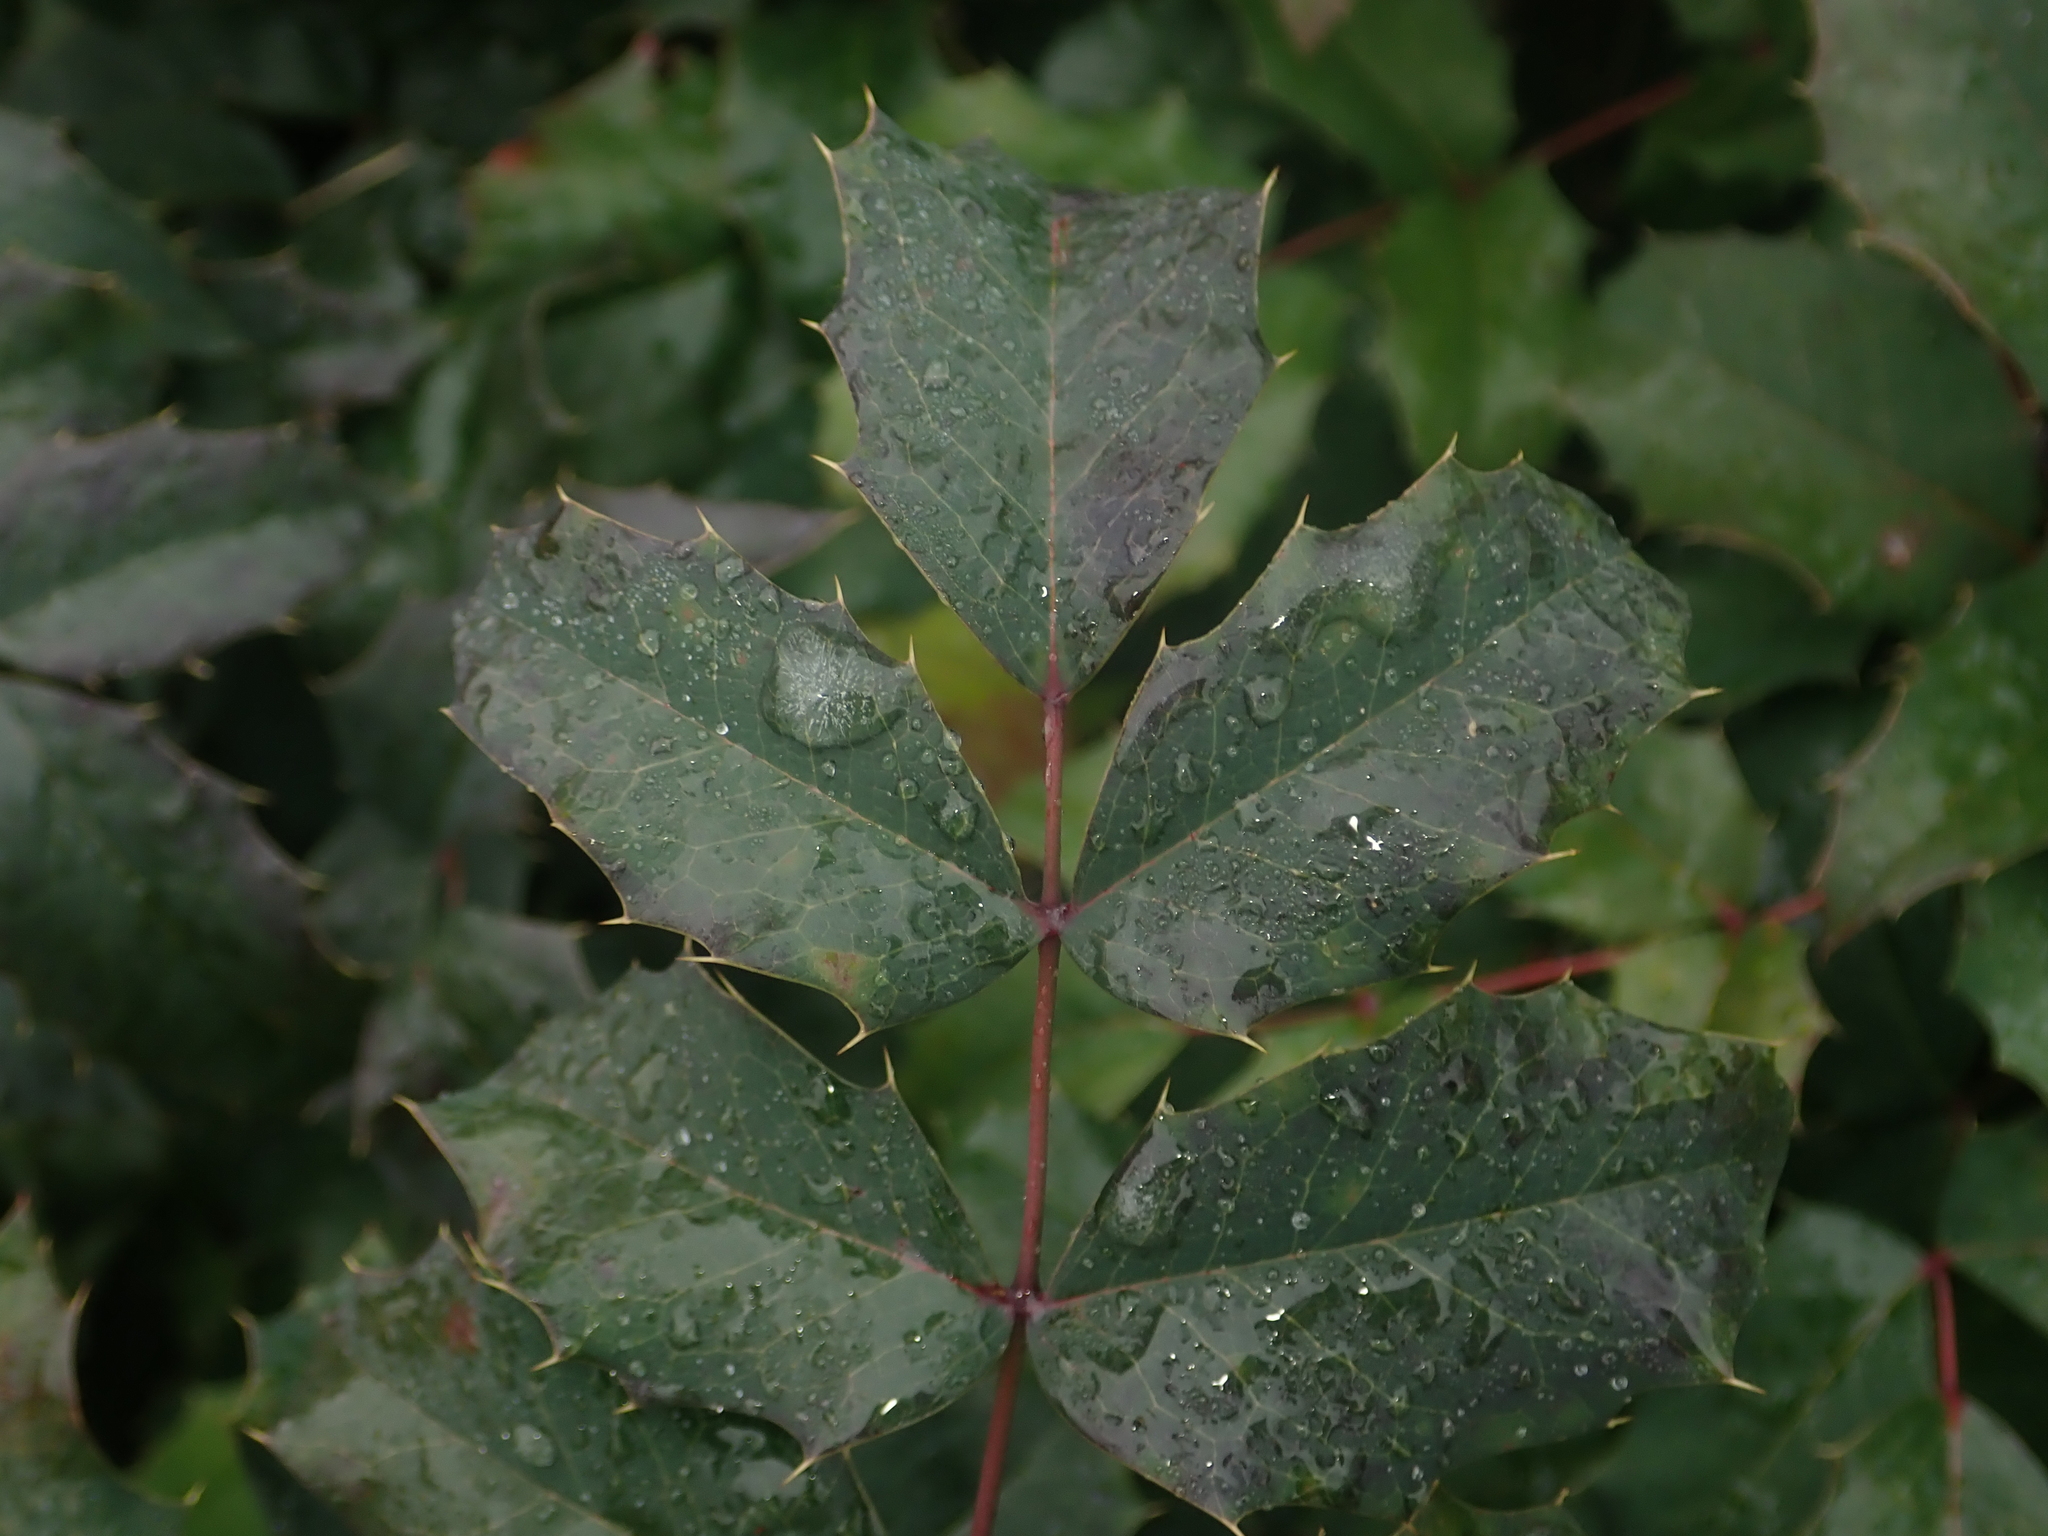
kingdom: Plantae
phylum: Tracheophyta
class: Magnoliopsida
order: Ranunculales
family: Berberidaceae
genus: Mahonia
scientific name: Mahonia aquifolium
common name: Oregon-grape
